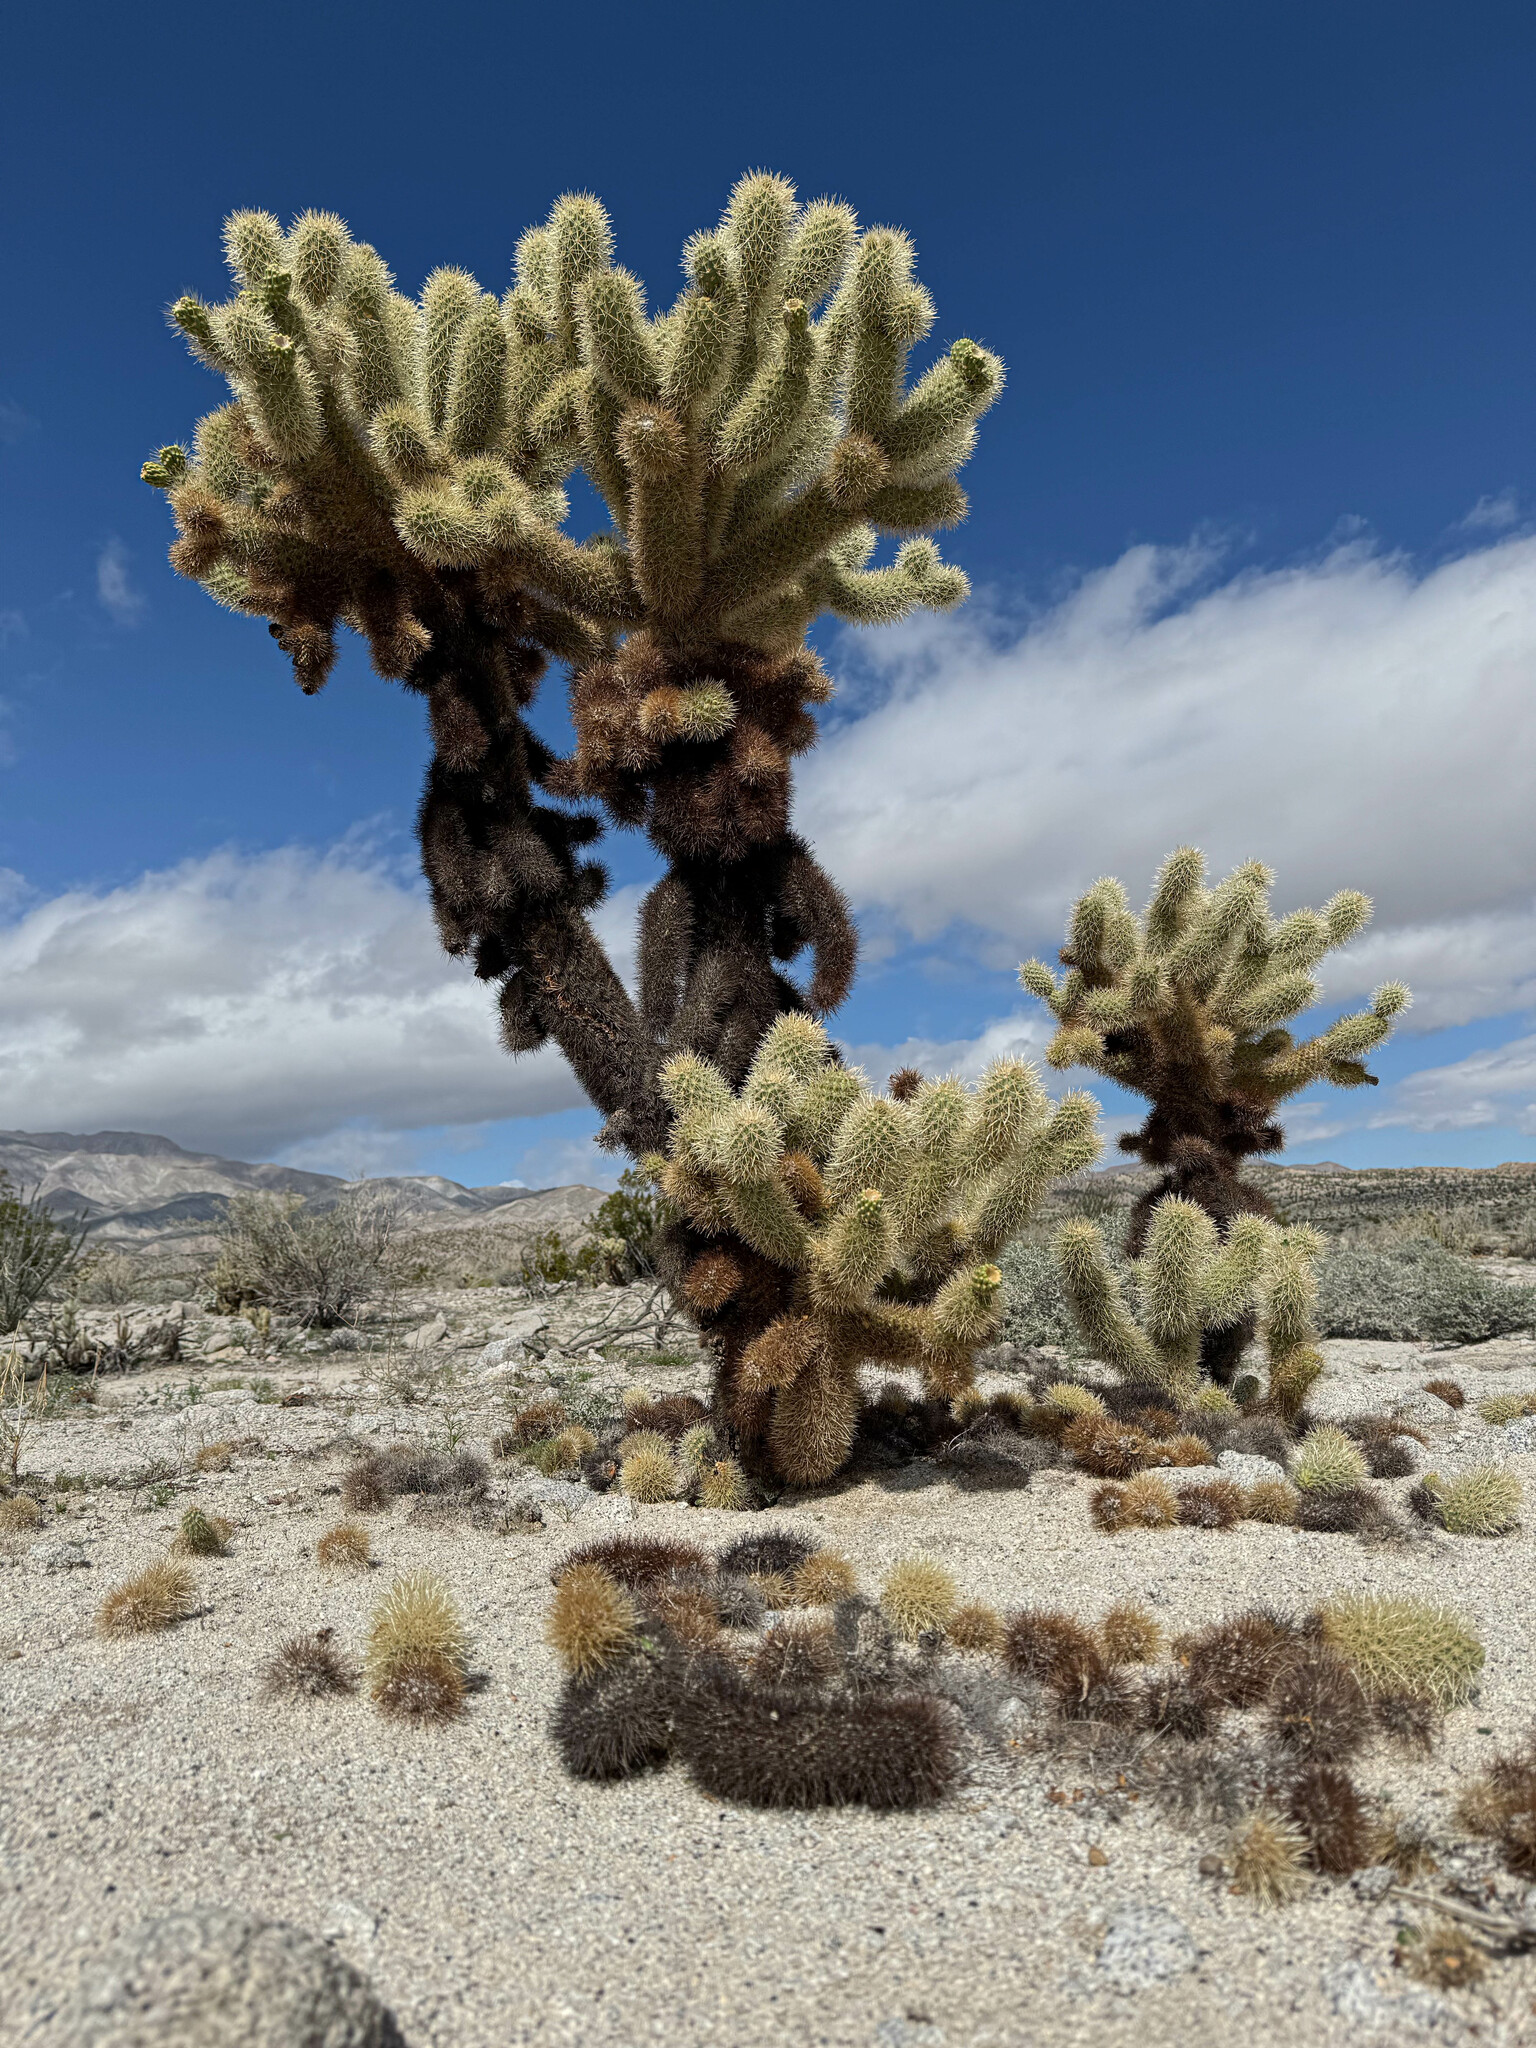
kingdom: Plantae
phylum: Tracheophyta
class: Magnoliopsida
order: Caryophyllales
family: Cactaceae
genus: Cylindropuntia
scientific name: Cylindropuntia fosbergii
